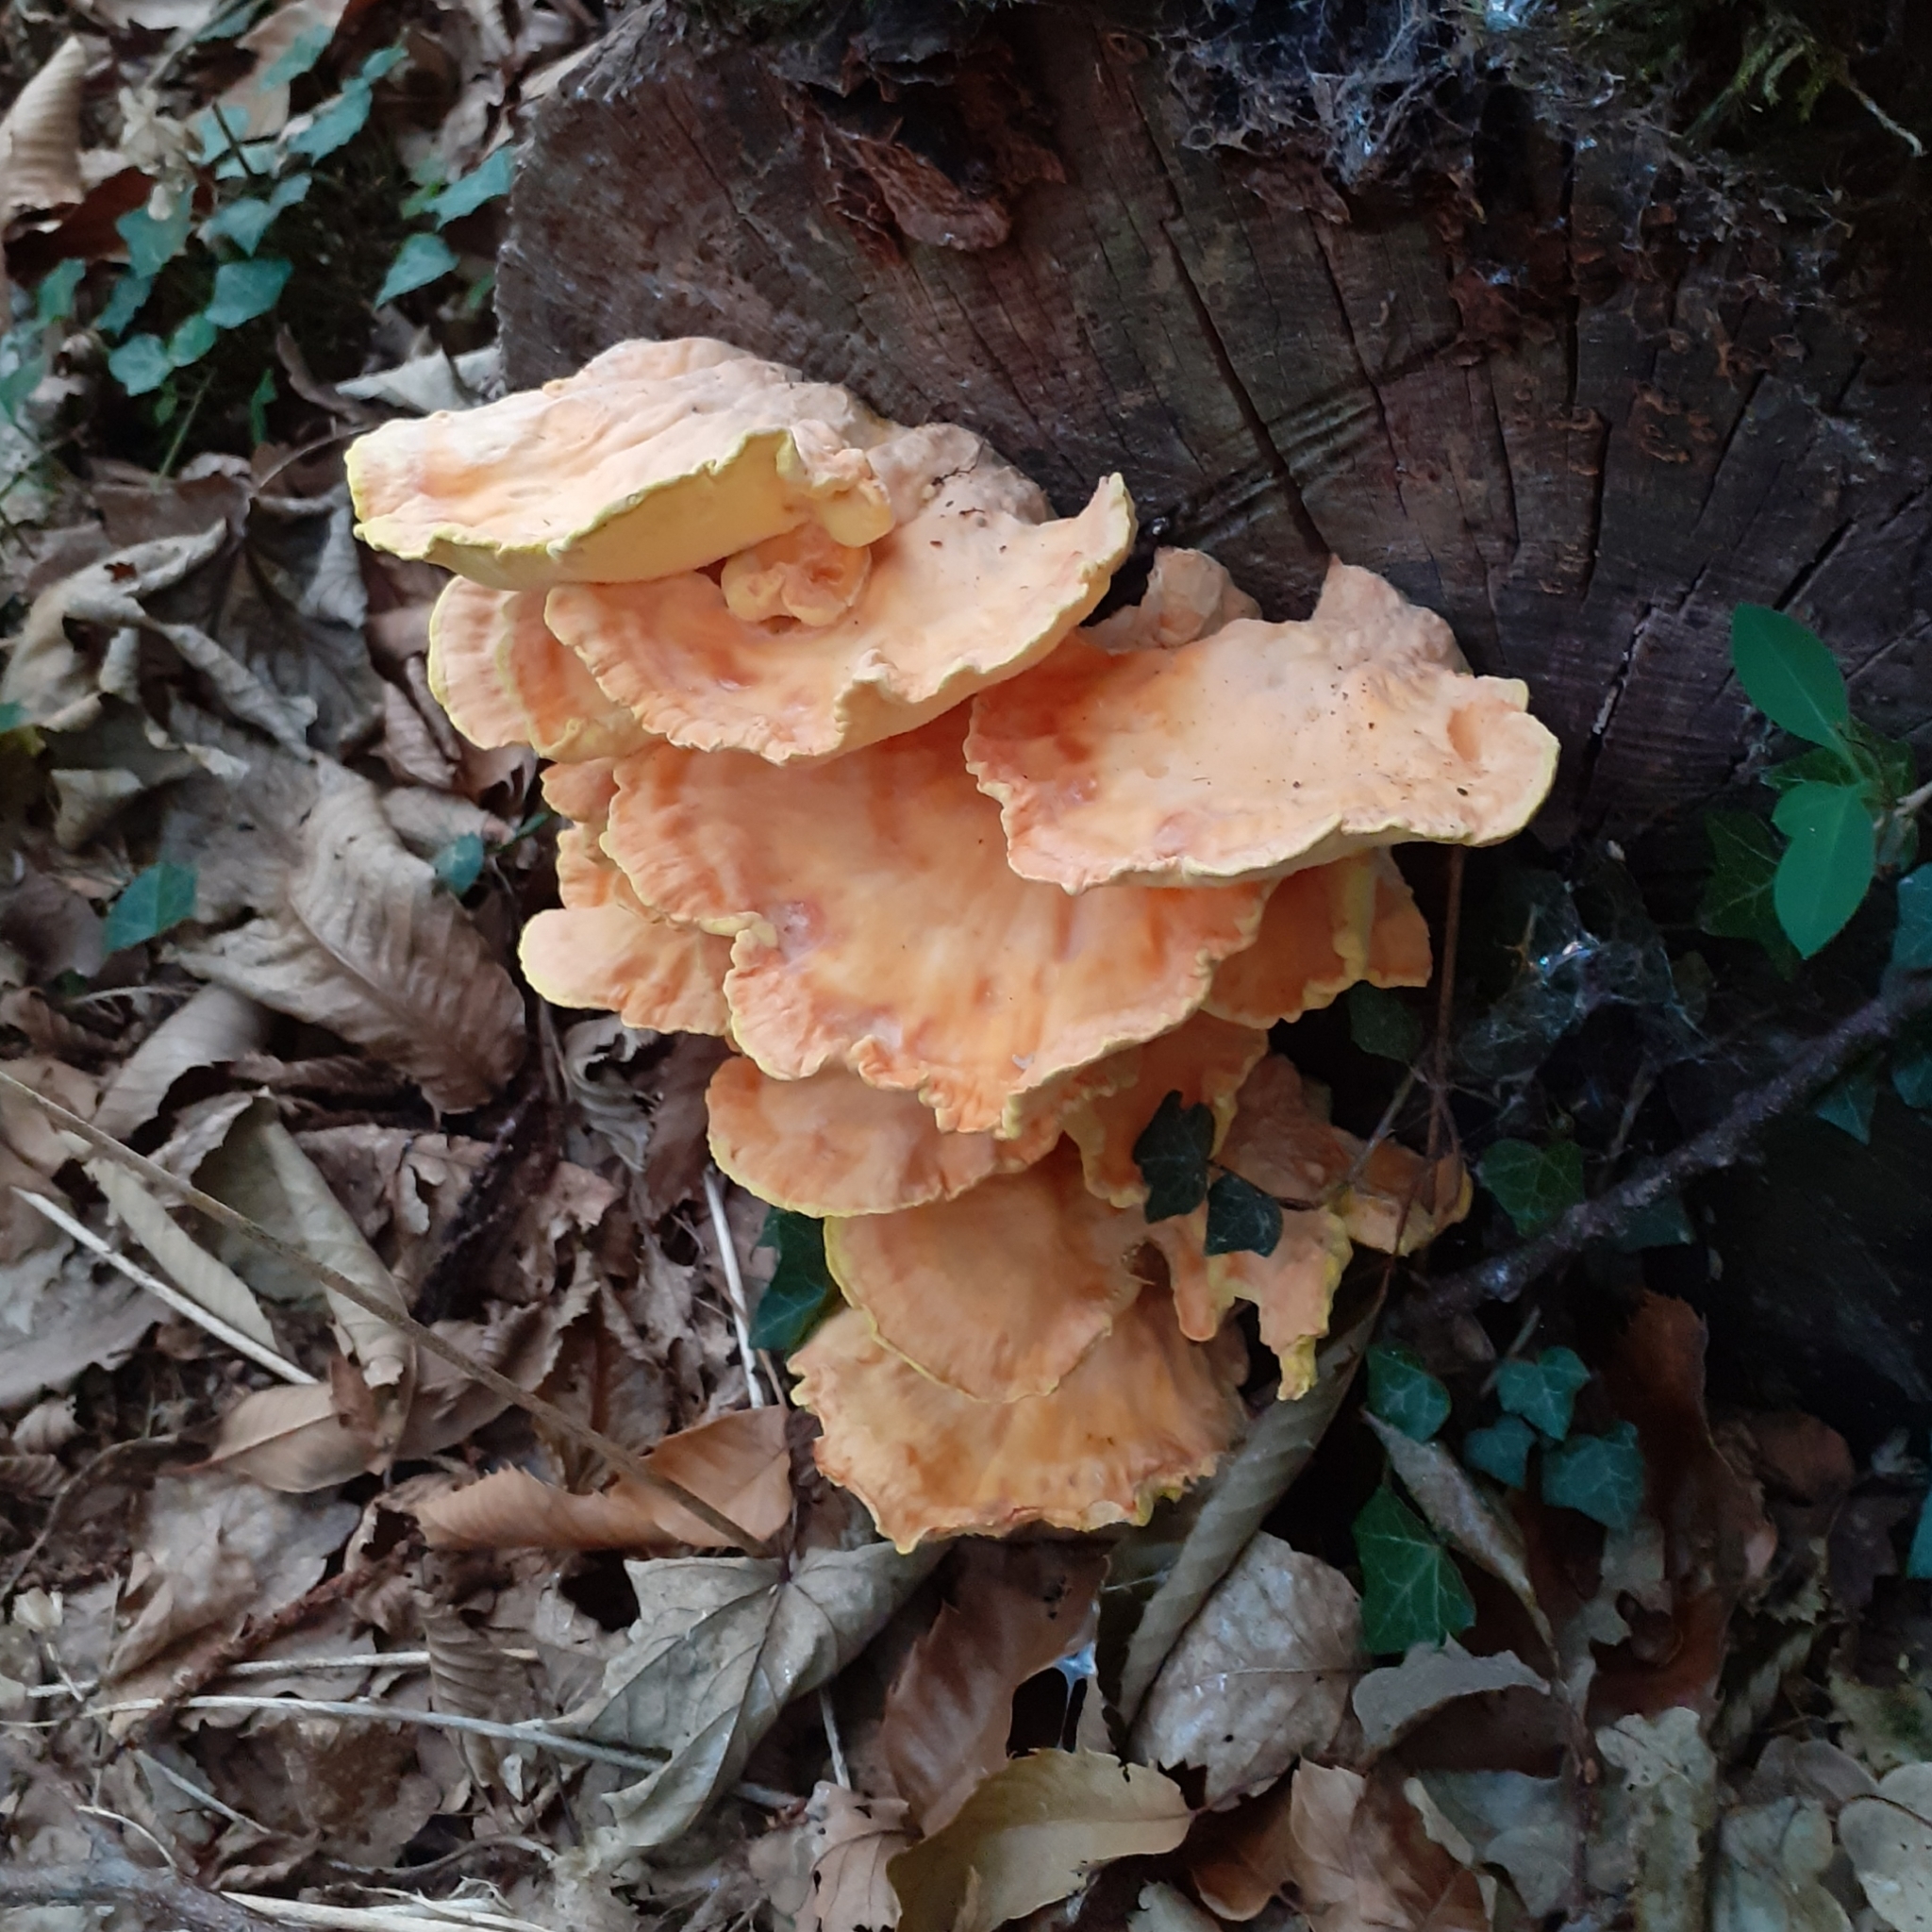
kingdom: Fungi
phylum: Basidiomycota
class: Agaricomycetes
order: Polyporales
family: Laetiporaceae
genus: Laetiporus
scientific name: Laetiporus sulphureus
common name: Chicken of the woods
